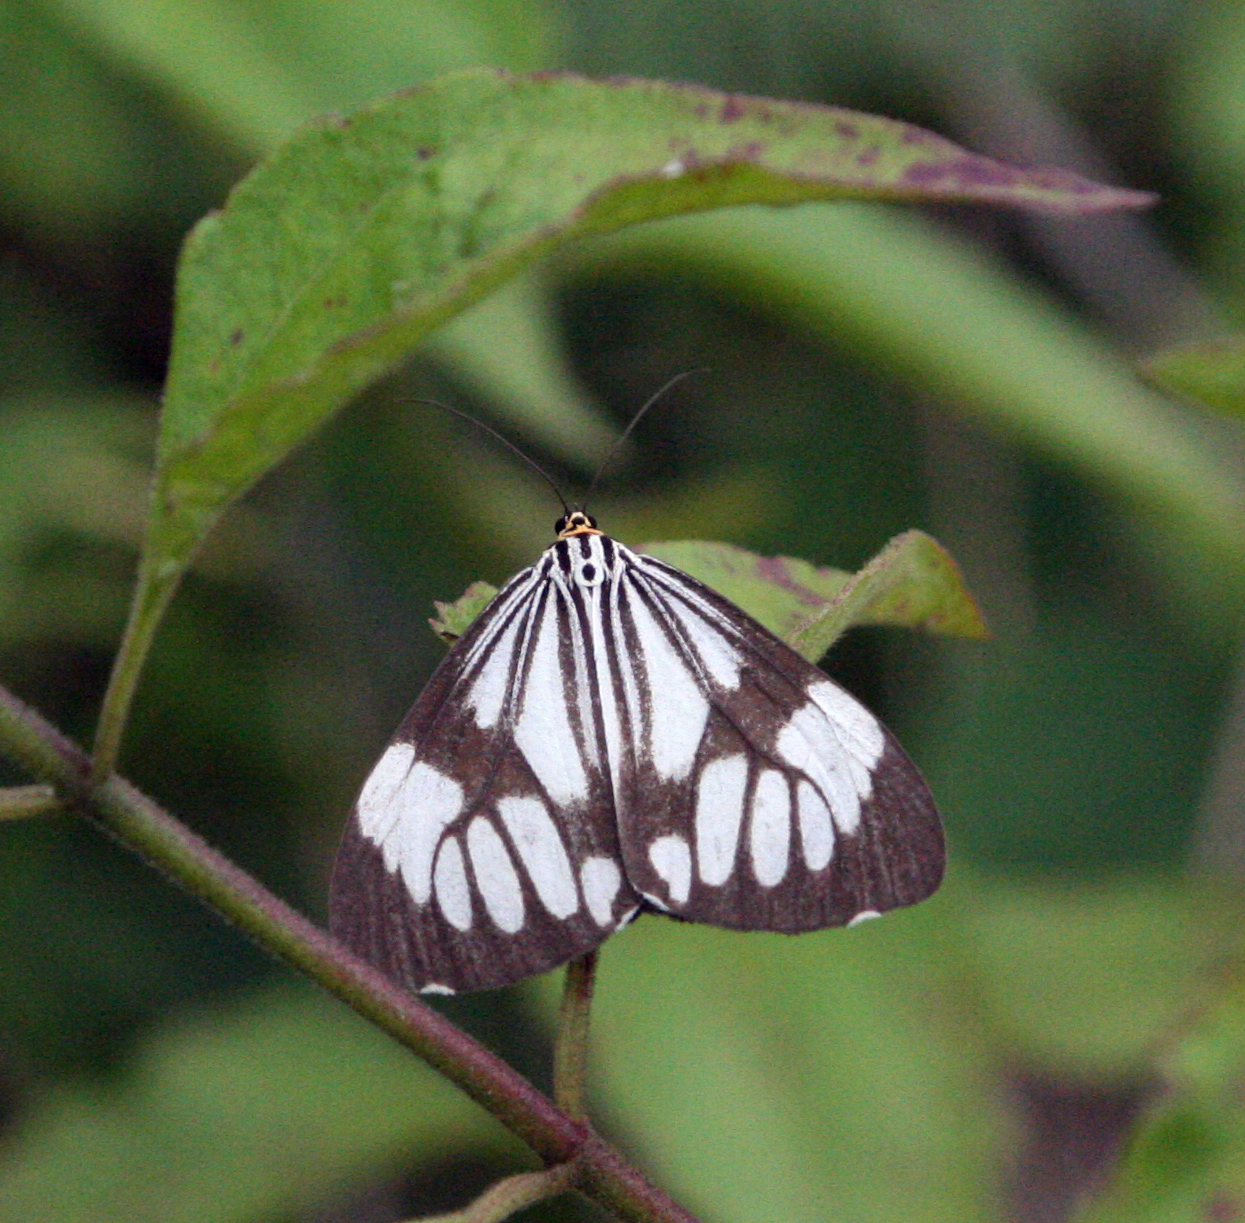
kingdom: Animalia
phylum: Arthropoda
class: Insecta
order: Lepidoptera
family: Erebidae
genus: Nyctemera
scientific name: Nyctemera coleta
